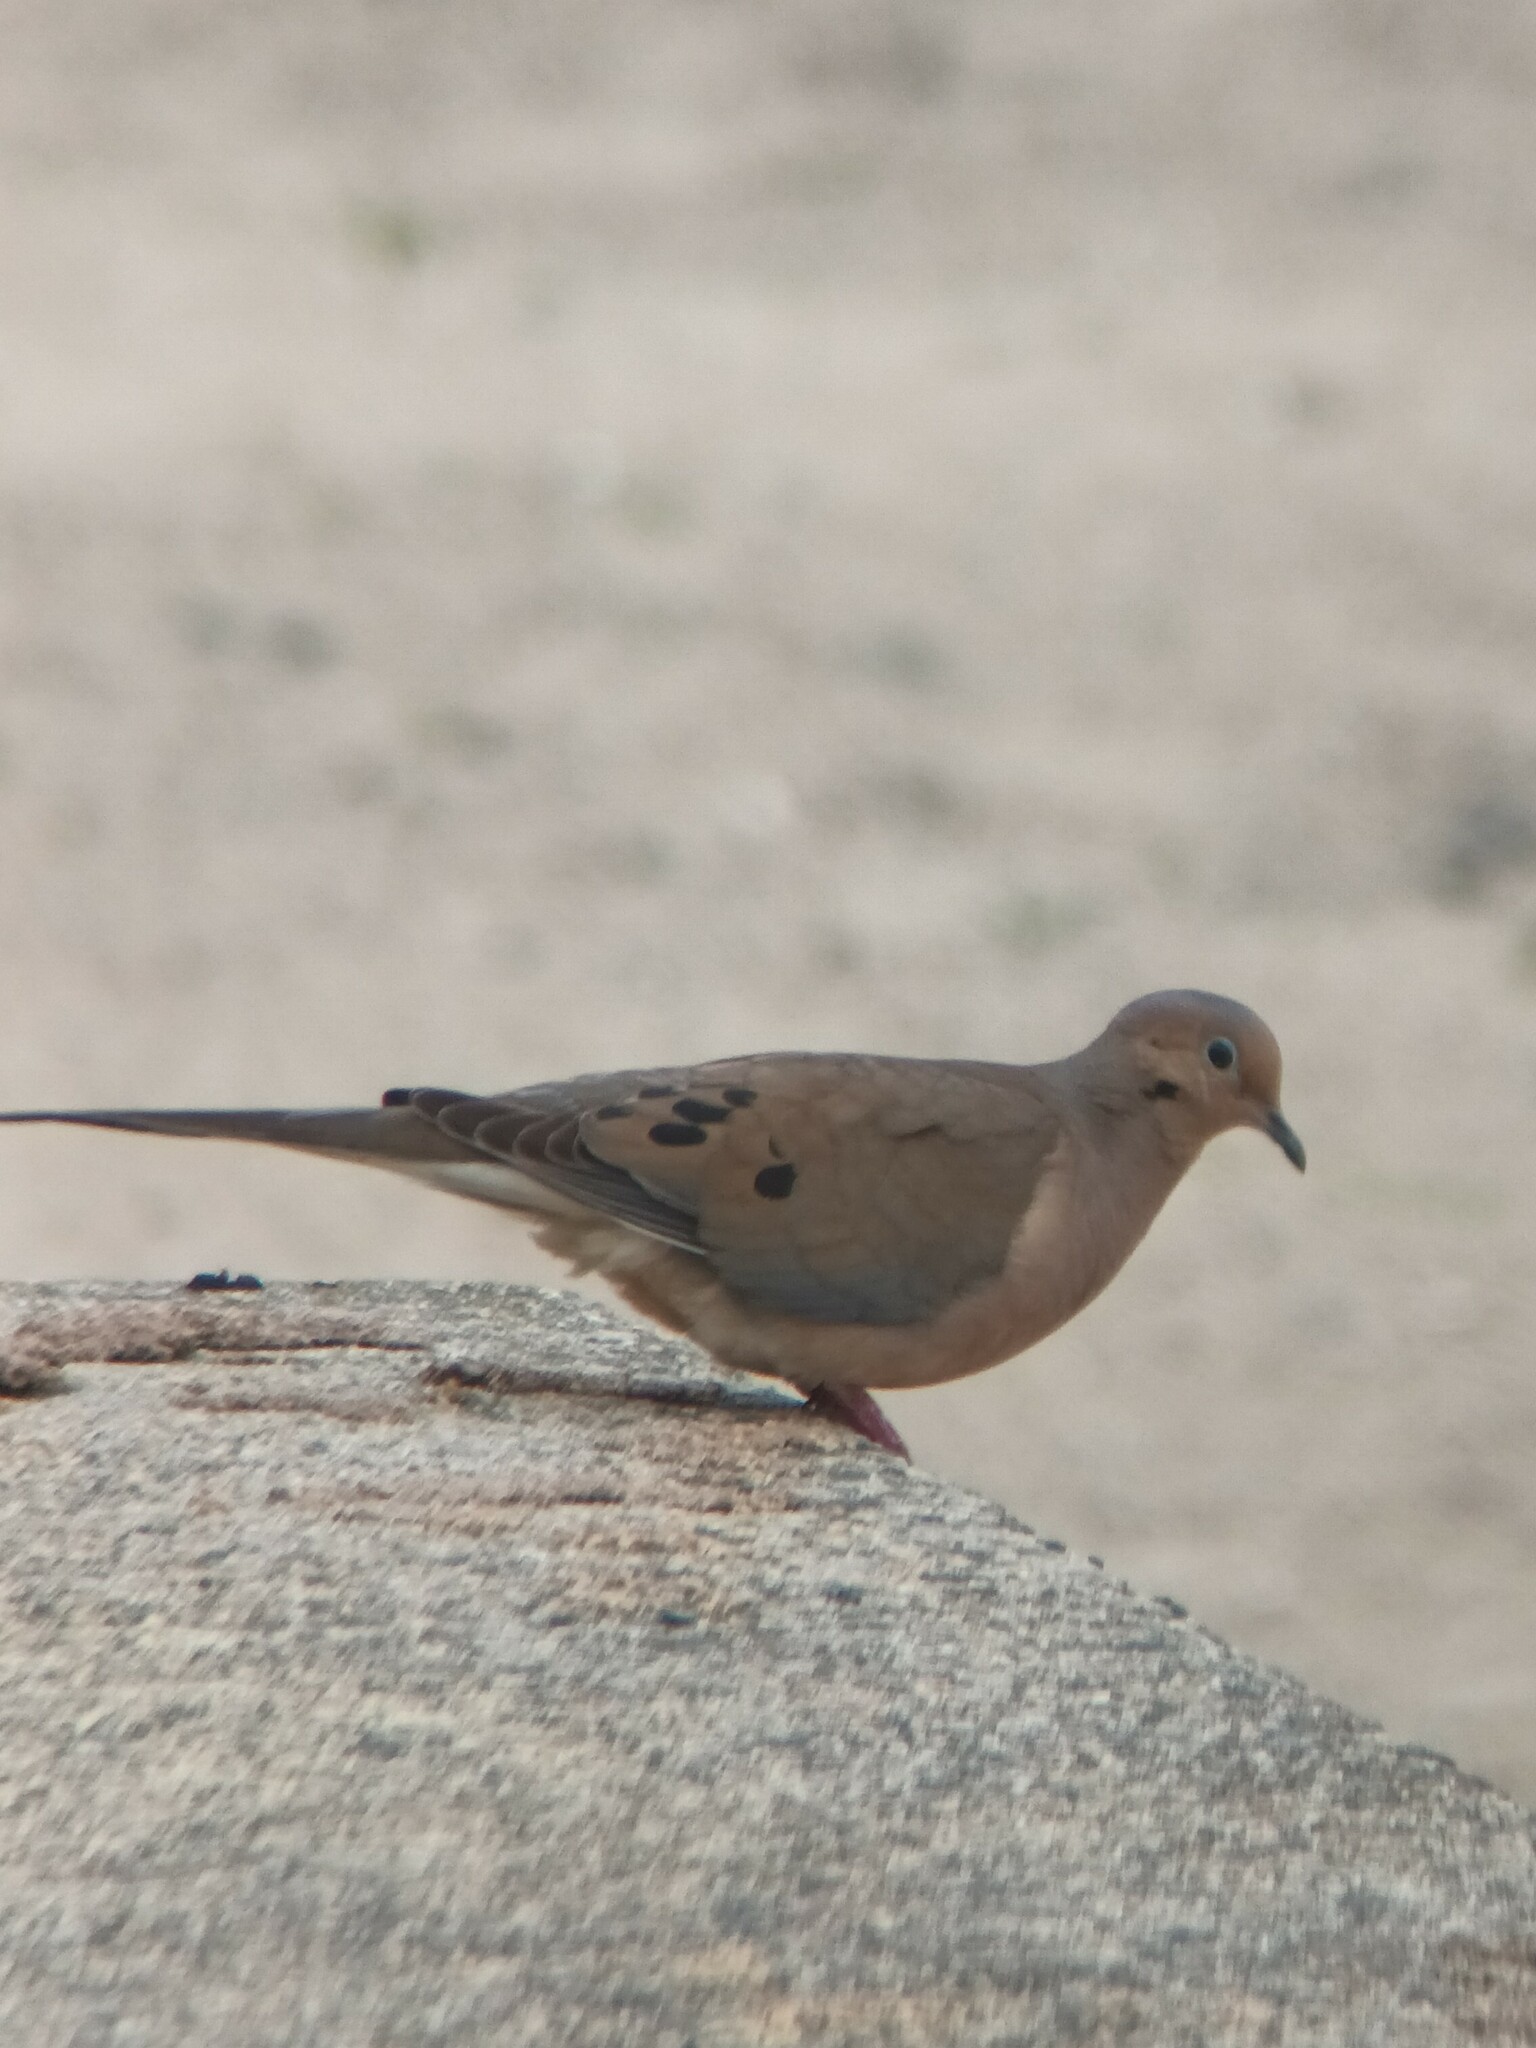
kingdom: Animalia
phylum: Chordata
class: Aves
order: Columbiformes
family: Columbidae
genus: Zenaida
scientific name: Zenaida macroura
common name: Mourning dove
